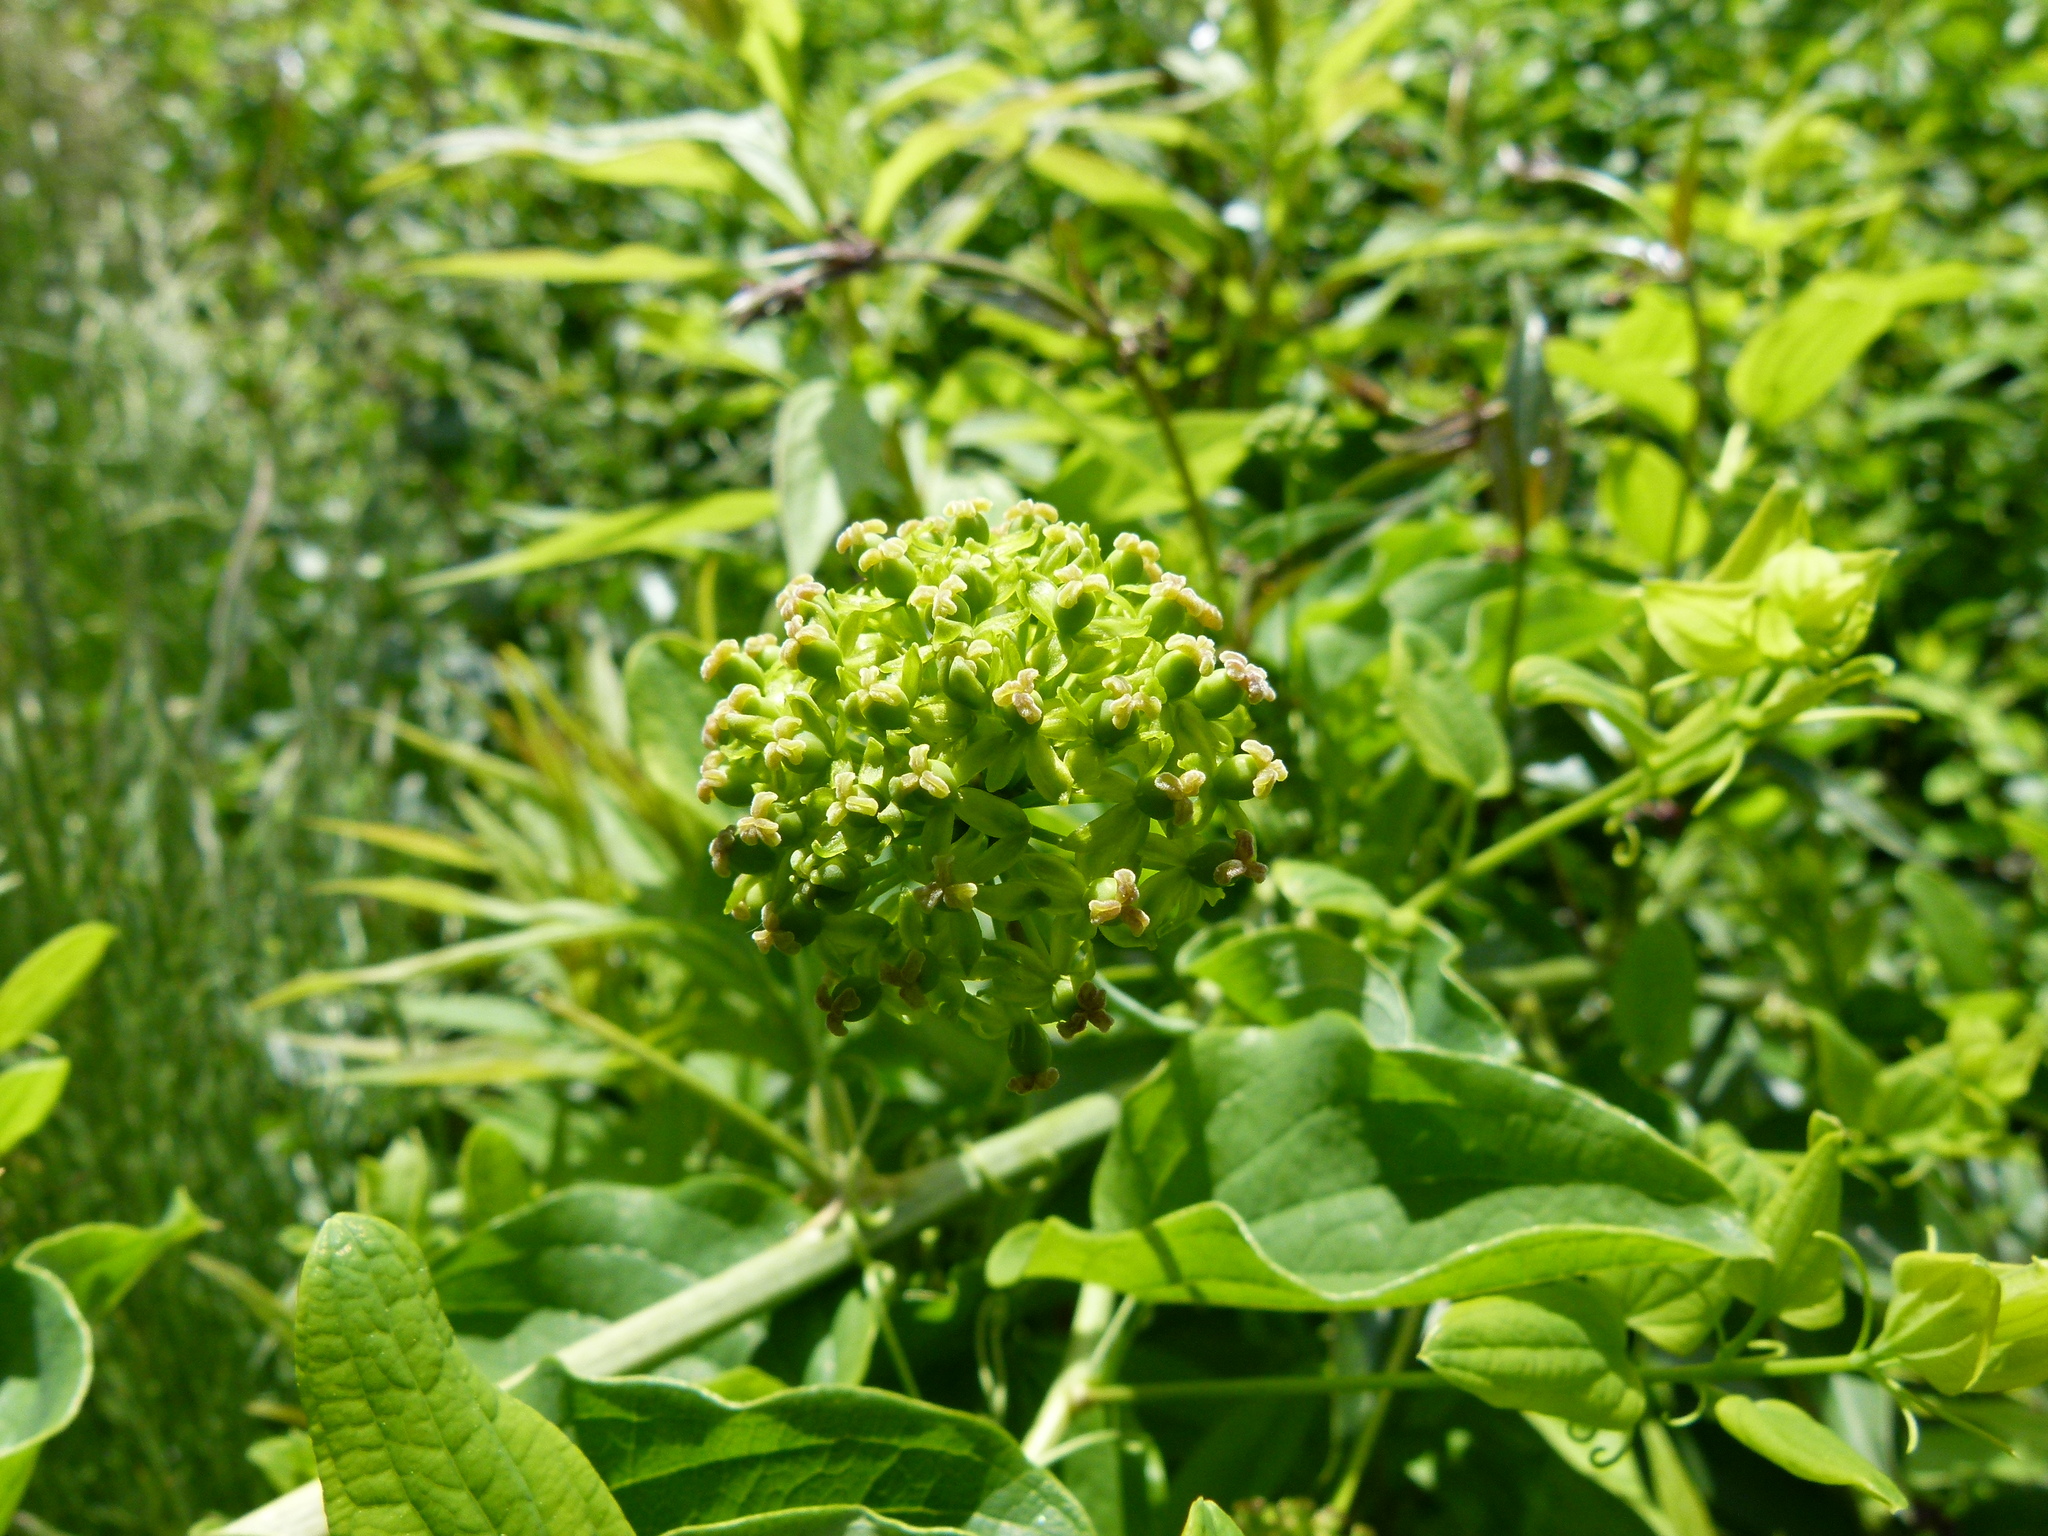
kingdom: Plantae
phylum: Tracheophyta
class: Liliopsida
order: Liliales
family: Smilacaceae
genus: Smilax
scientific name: Smilax herbacea
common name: Jacob's-ladder
